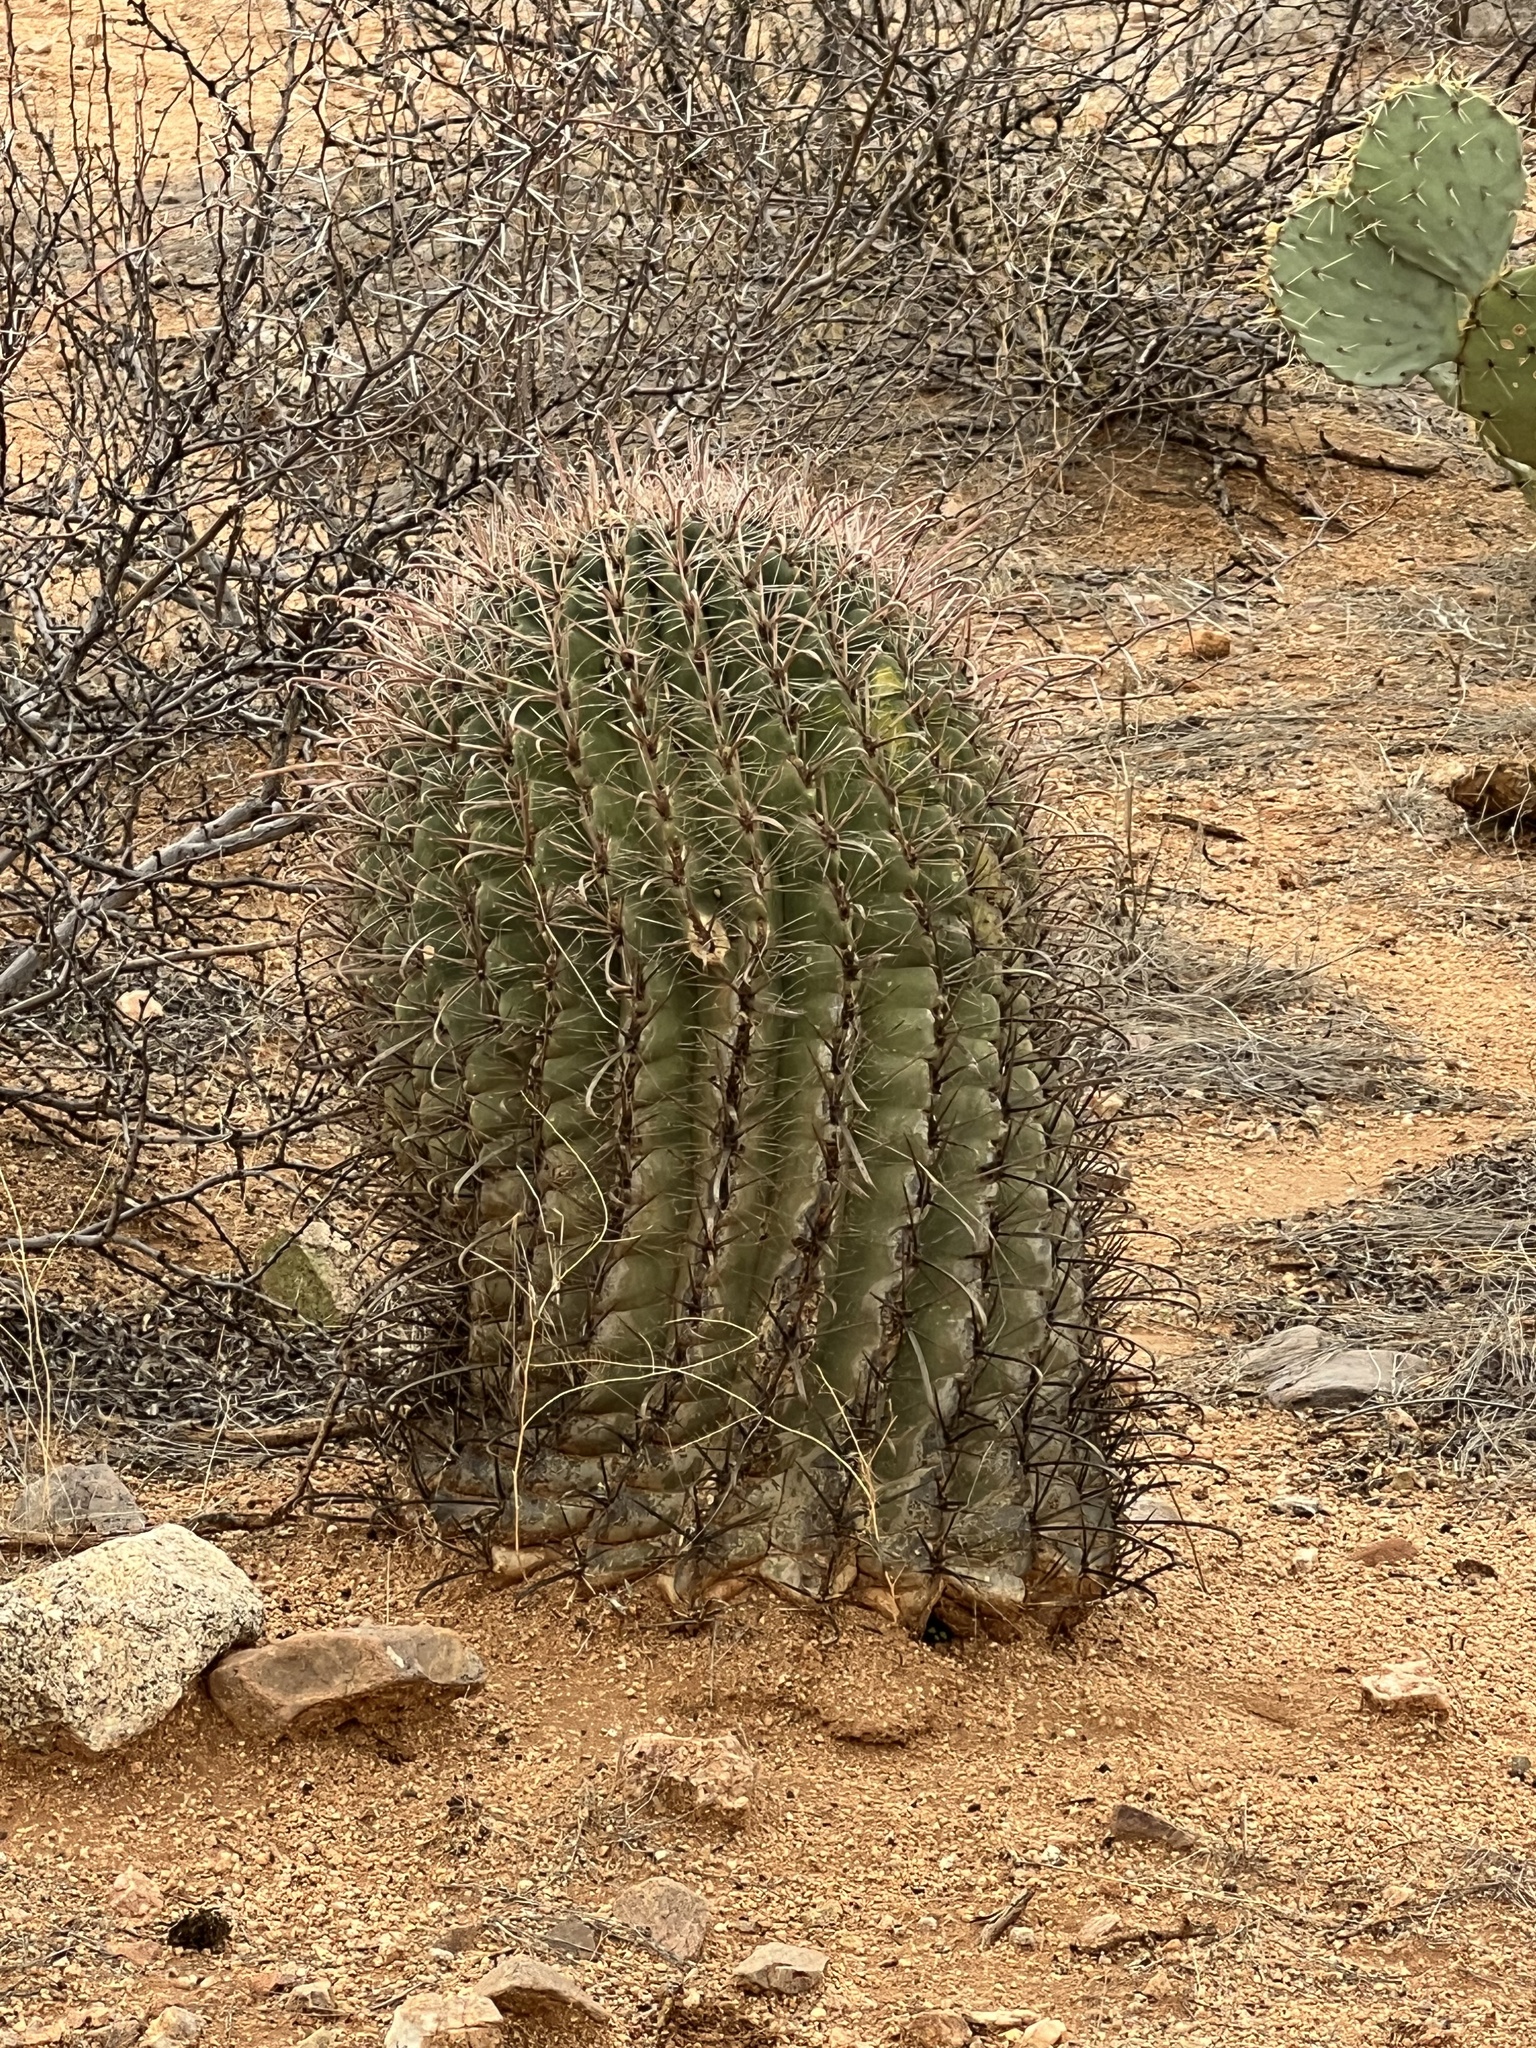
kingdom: Plantae
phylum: Tracheophyta
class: Magnoliopsida
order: Caryophyllales
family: Cactaceae
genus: Ferocactus
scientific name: Ferocactus wislizeni
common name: Candy barrel cactus
